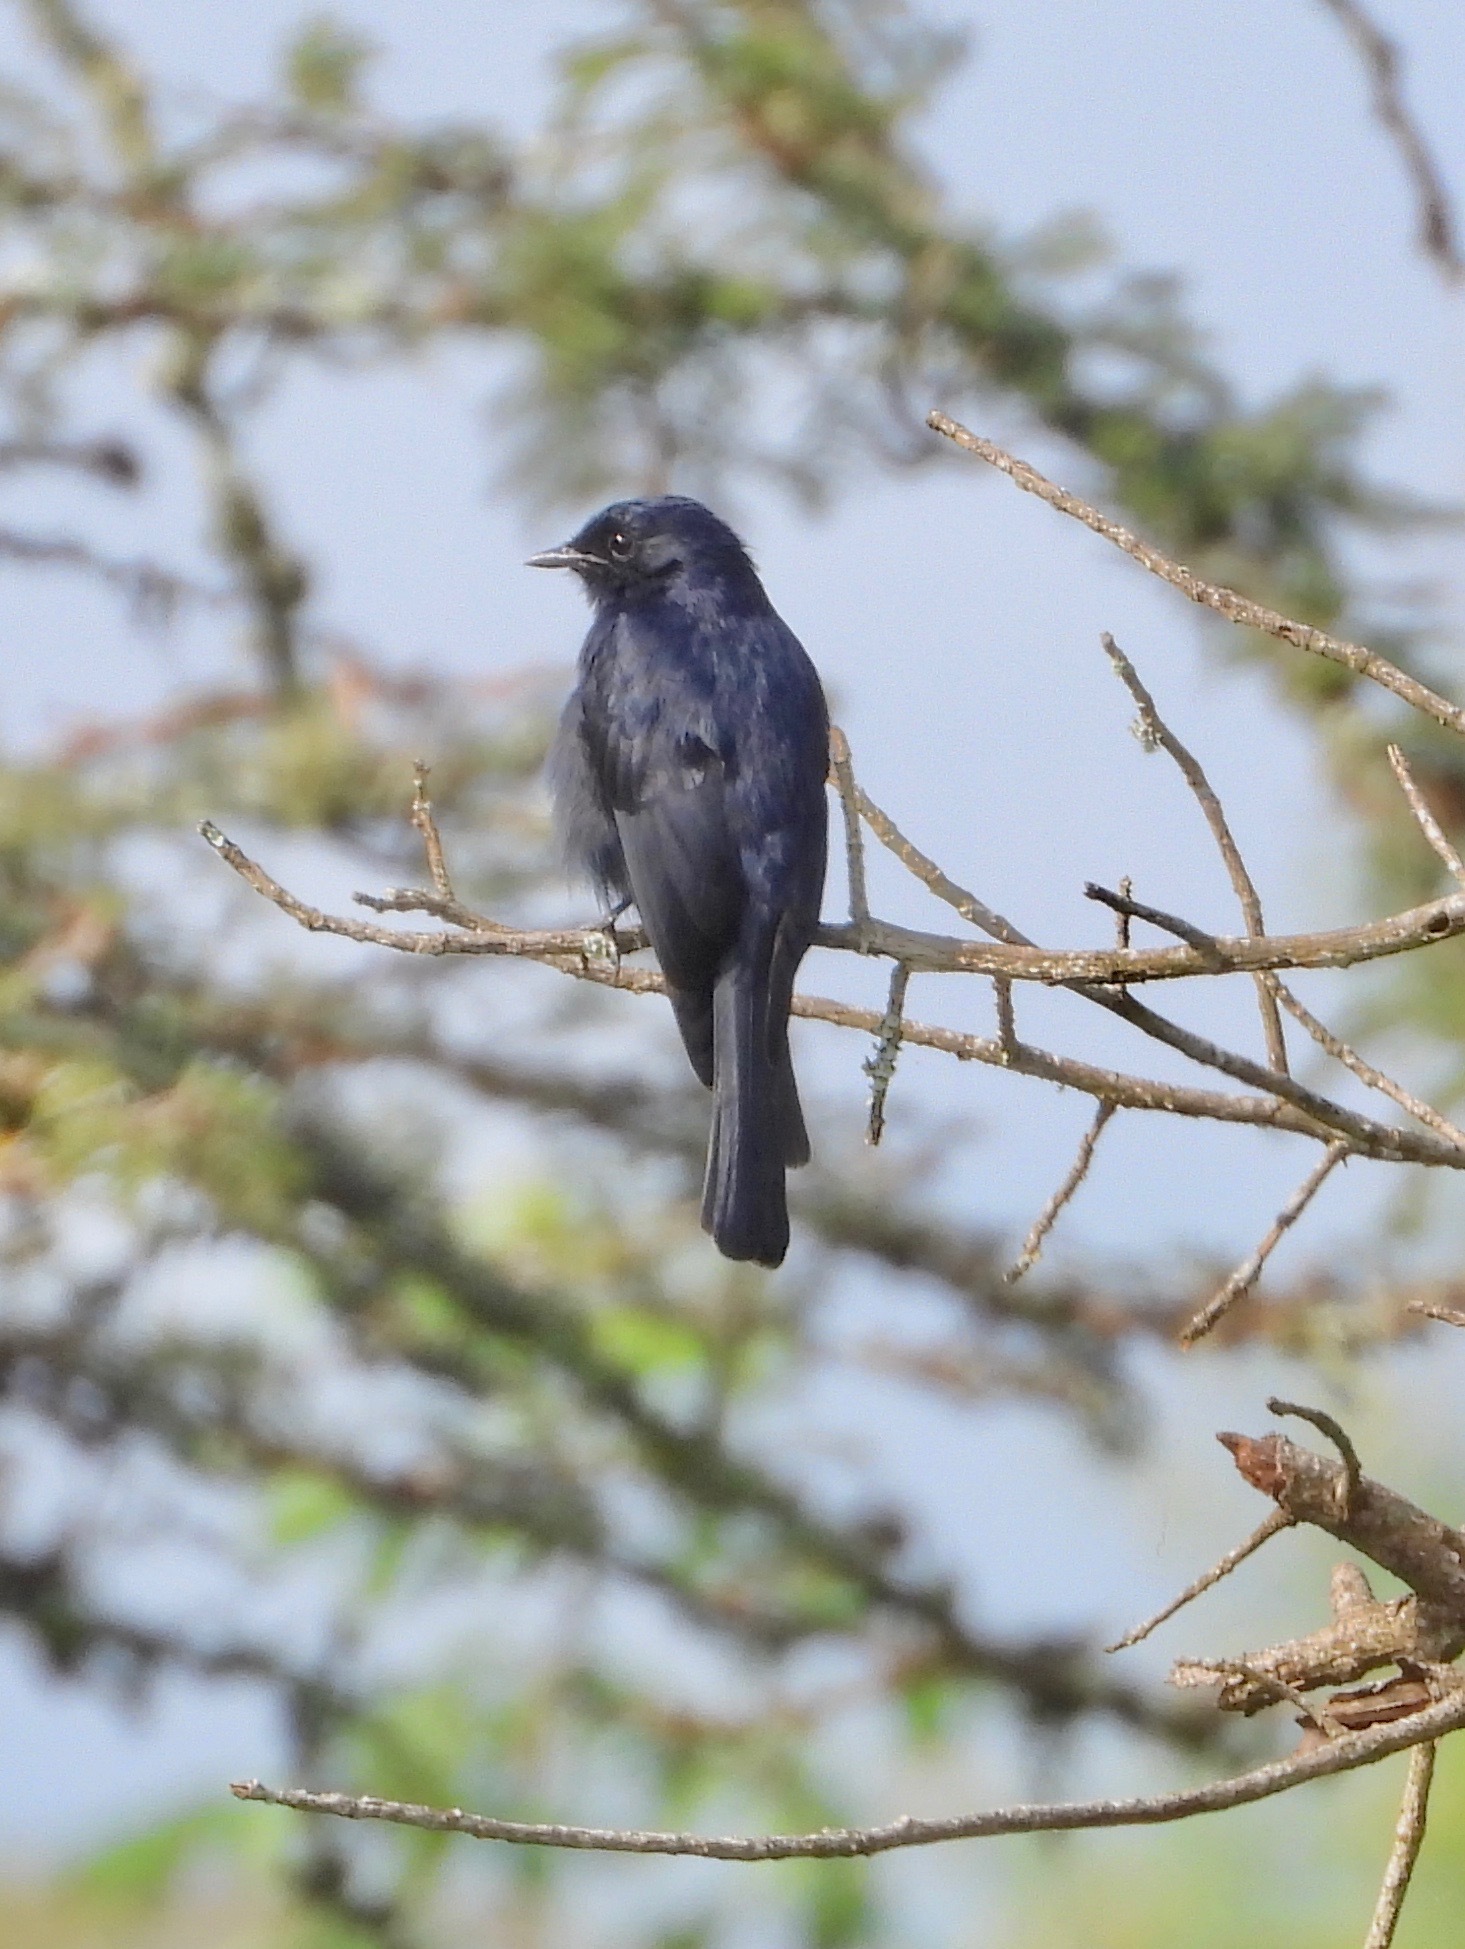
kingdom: Animalia
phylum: Chordata
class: Aves
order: Passeriformes
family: Muscicapidae
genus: Melaenornis
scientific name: Melaenornis edolioides
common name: Northern black flycatcher
